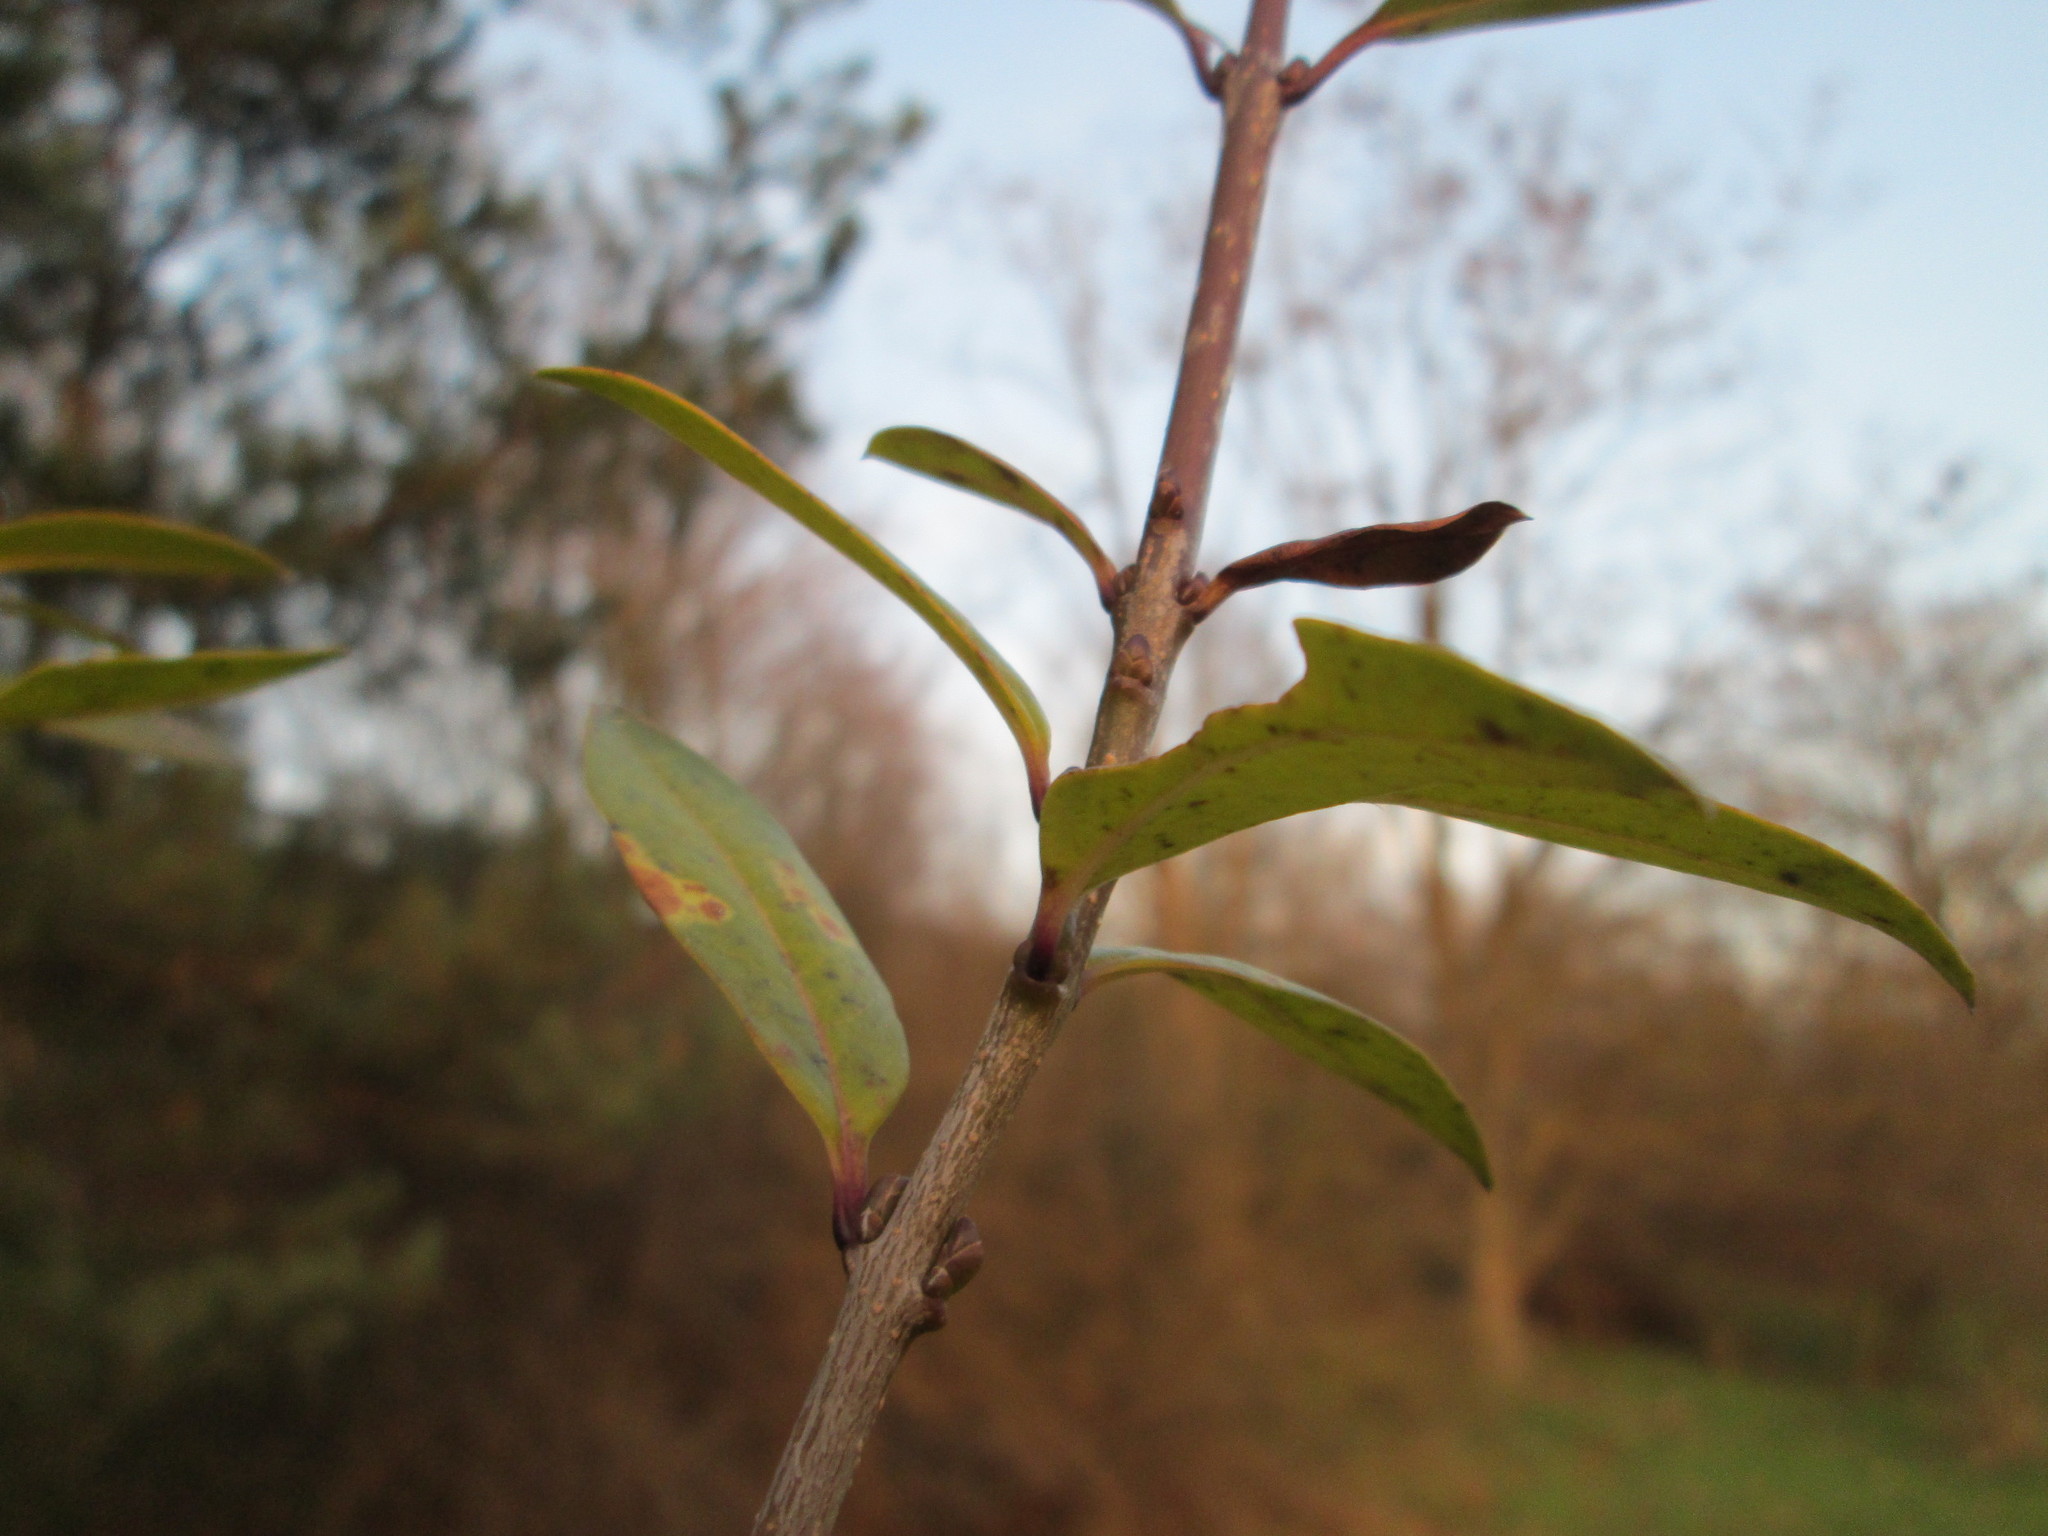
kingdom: Plantae
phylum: Tracheophyta
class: Magnoliopsida
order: Lamiales
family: Oleaceae
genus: Ligustrum
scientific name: Ligustrum vulgare
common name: Wild privet
